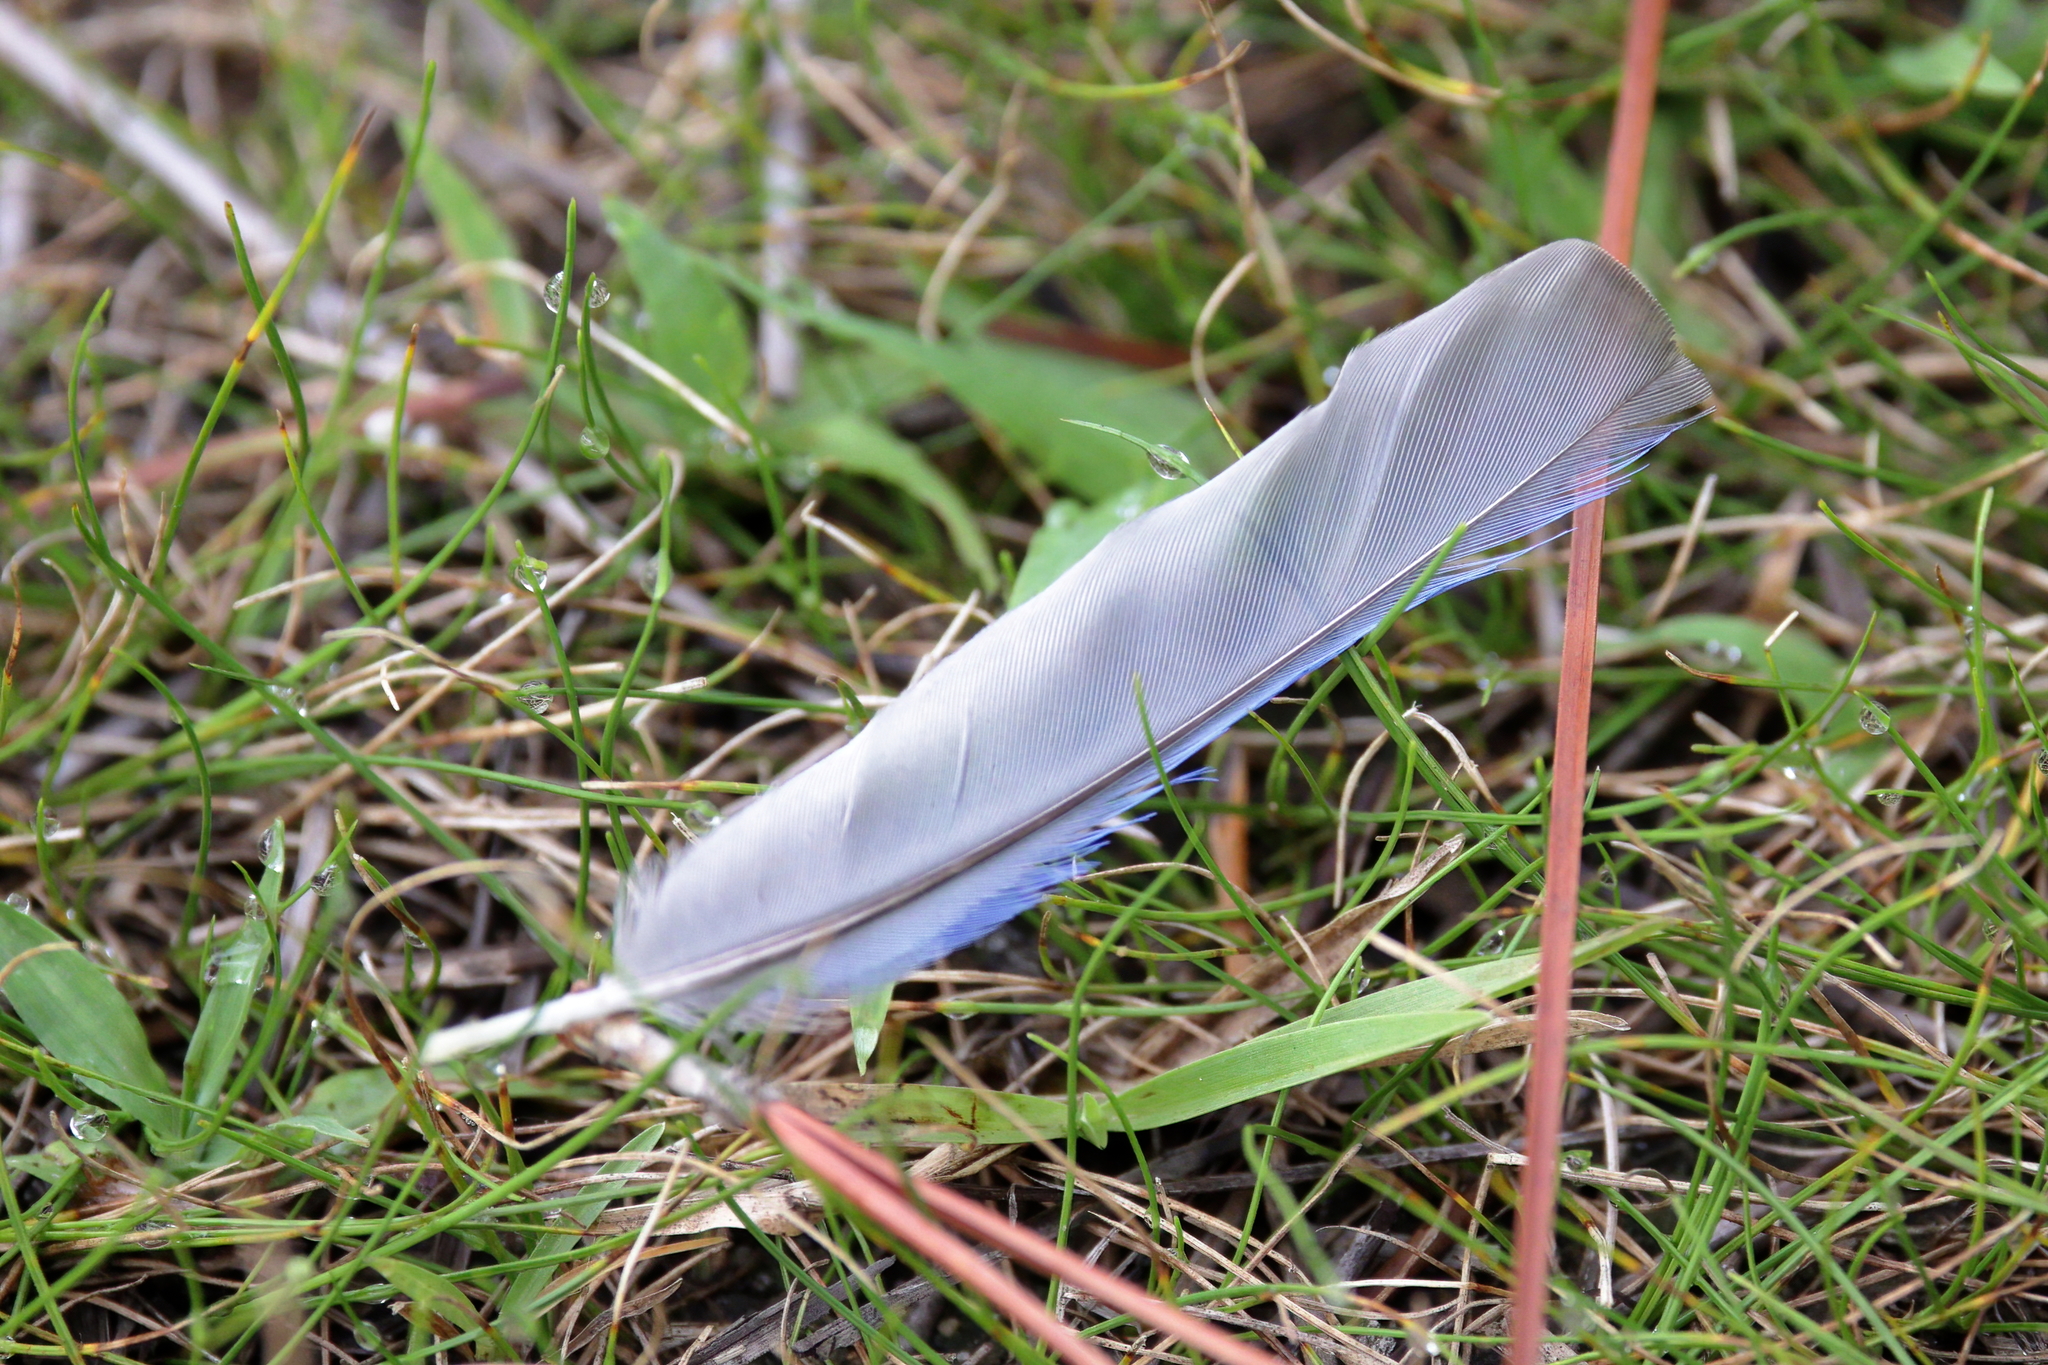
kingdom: Animalia
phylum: Chordata
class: Aves
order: Passeriformes
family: Corvidae
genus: Cyanocitta
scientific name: Cyanocitta cristata
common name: Blue jay
